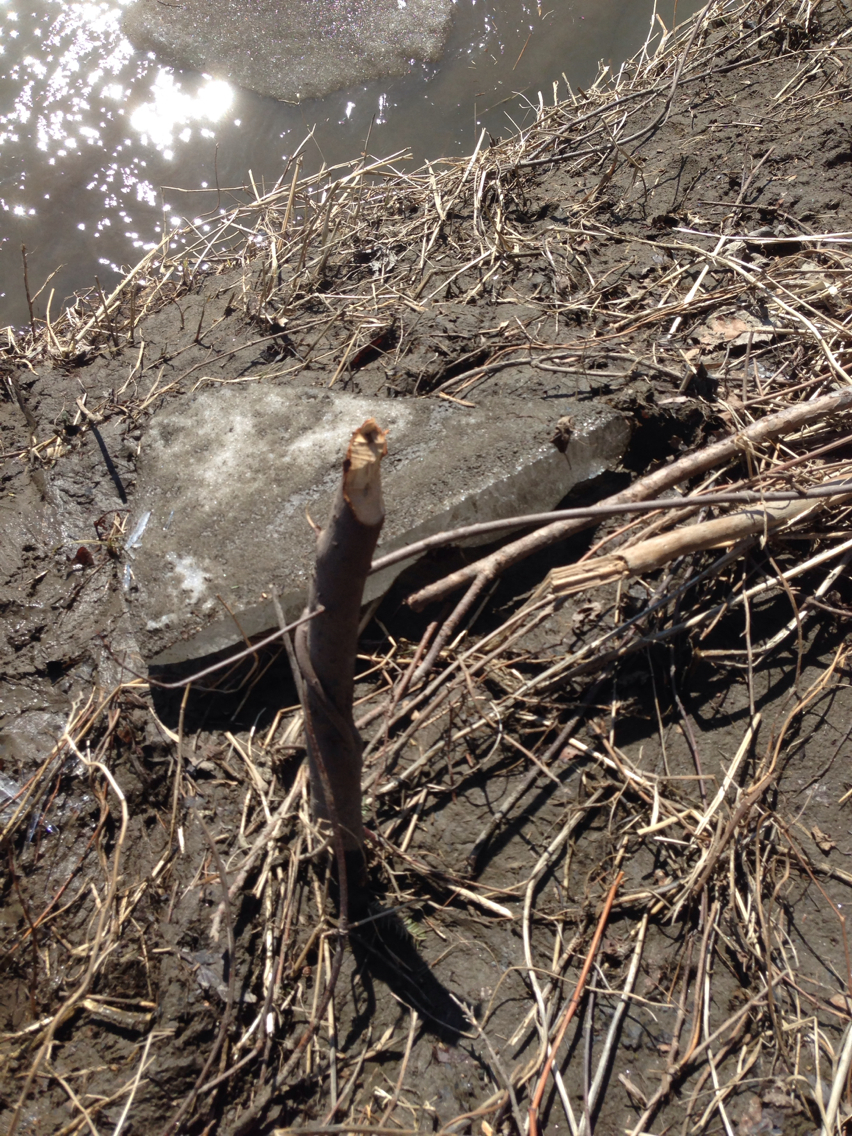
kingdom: Animalia
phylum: Chordata
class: Mammalia
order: Rodentia
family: Castoridae
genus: Castor
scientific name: Castor canadensis
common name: American beaver
